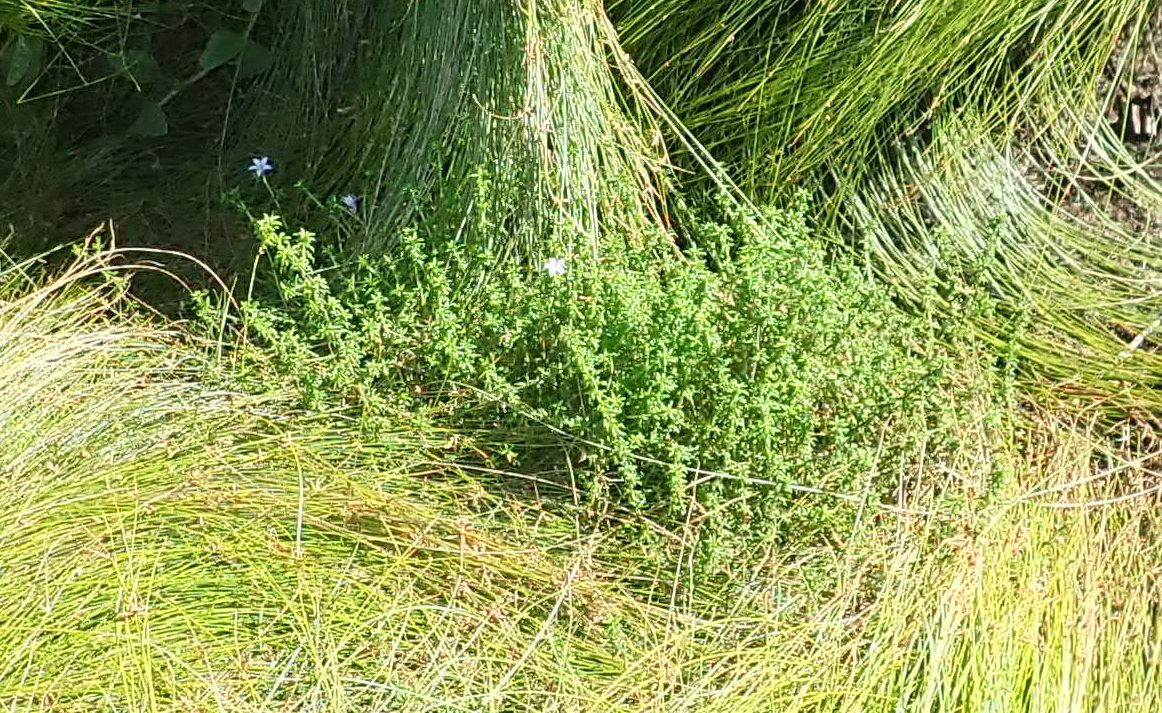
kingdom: Plantae
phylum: Tracheophyta
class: Magnoliopsida
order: Asterales
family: Campanulaceae
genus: Wahlenbergia
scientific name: Wahlenbergia thunbergii
